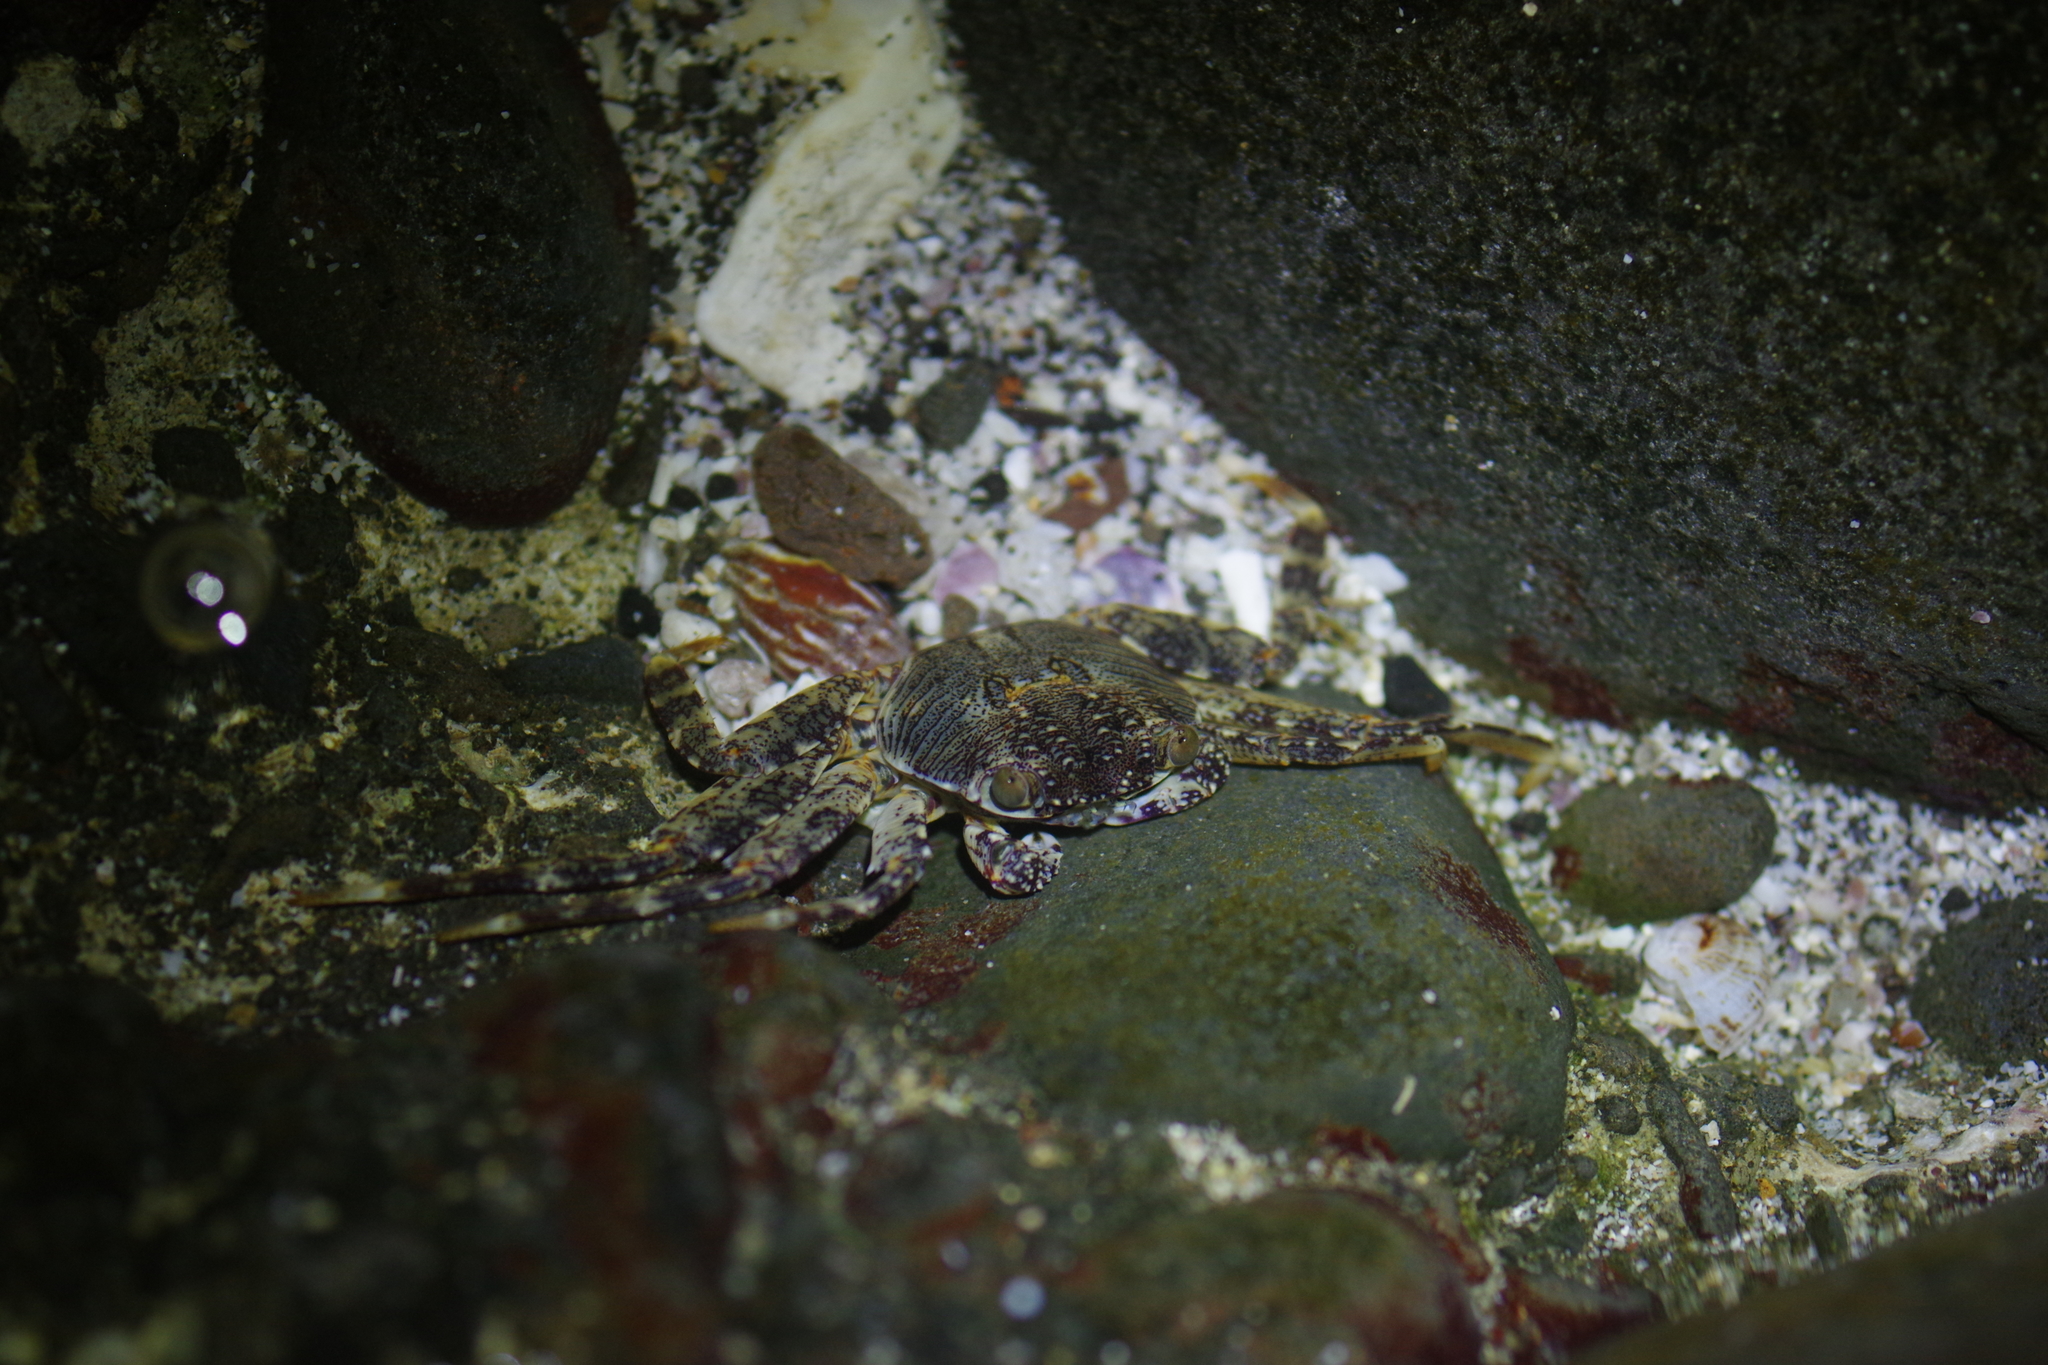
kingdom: Animalia
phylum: Arthropoda
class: Malacostraca
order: Decapoda
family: Grapsidae
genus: Grapsus
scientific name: Grapsus albolineatus
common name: Mottled lightfoot crab
